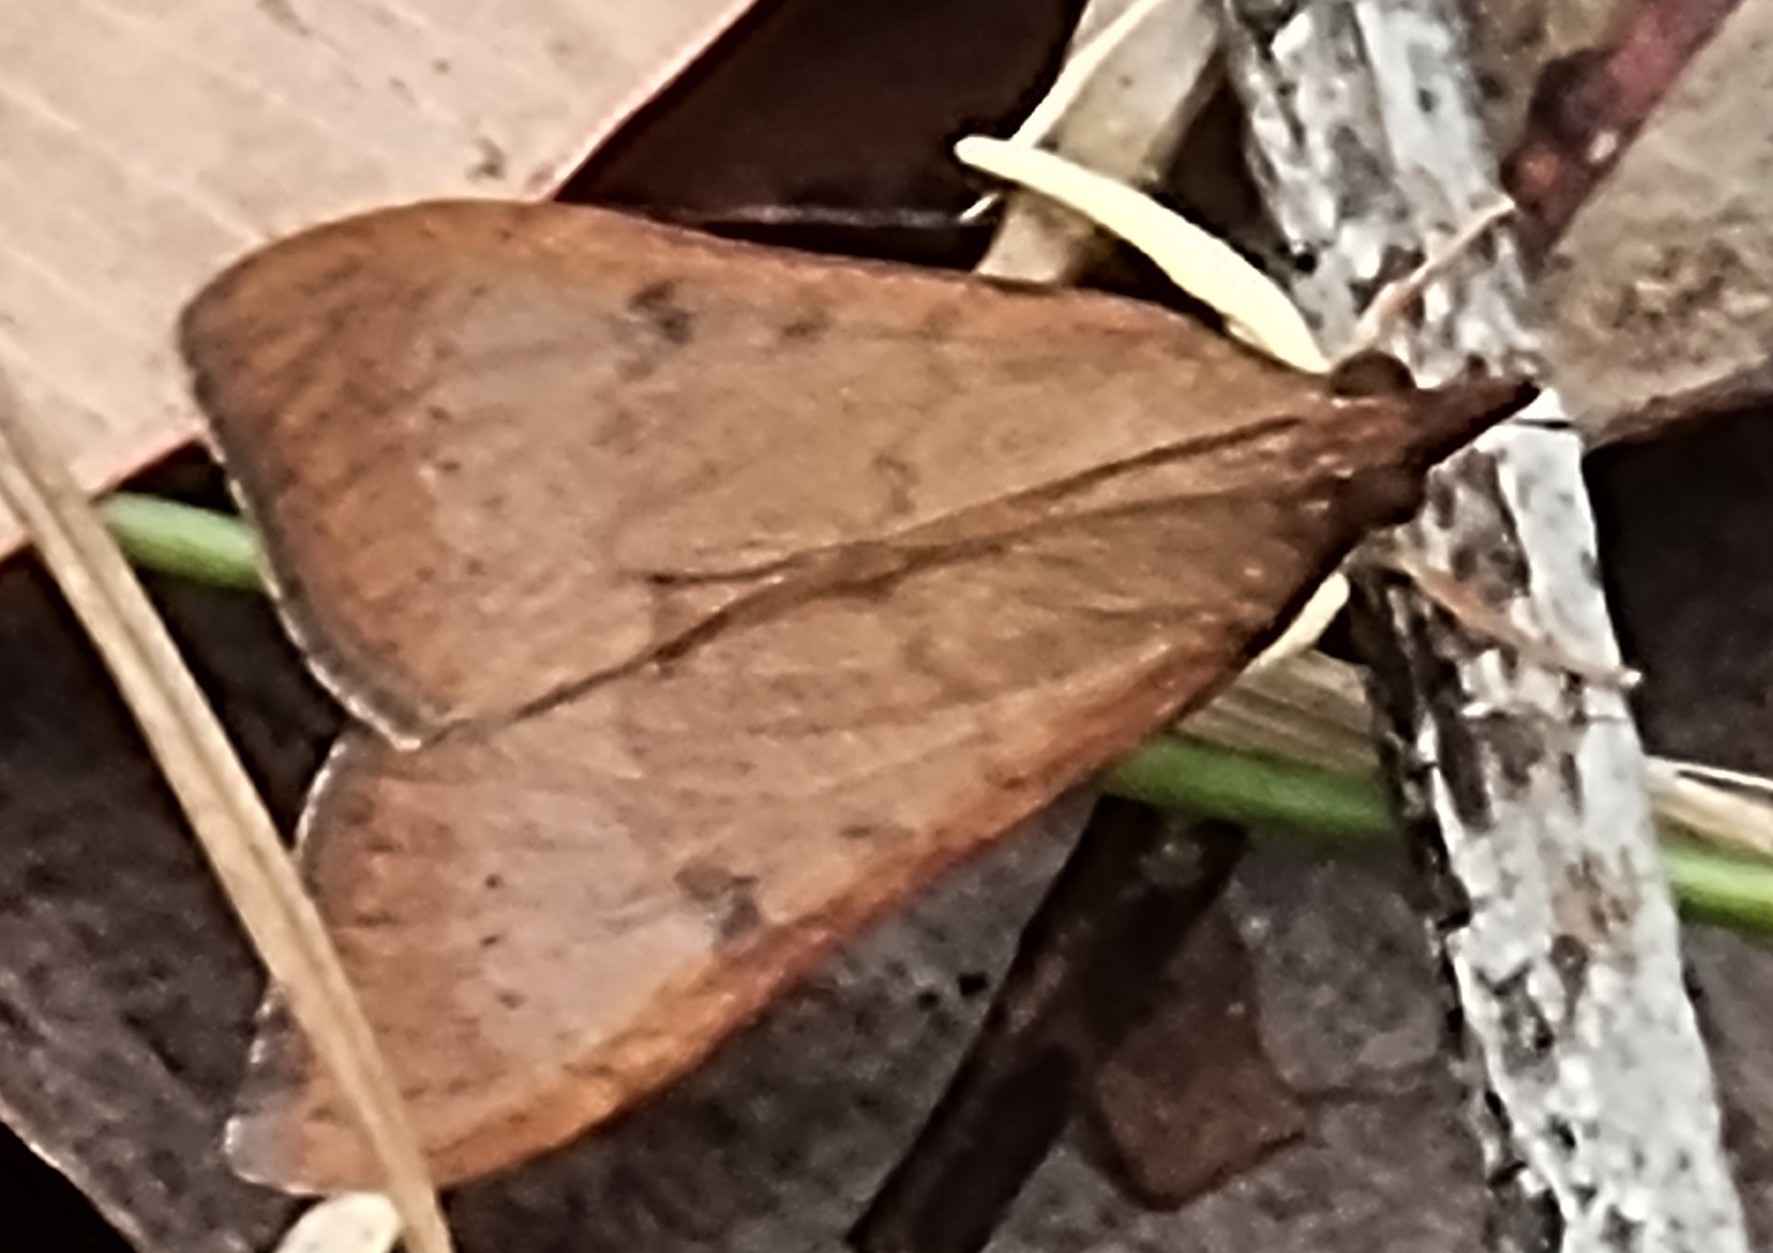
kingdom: Animalia
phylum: Arthropoda
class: Insecta
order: Lepidoptera
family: Crambidae
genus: Uresiphita
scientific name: Uresiphita ornithopteralis
